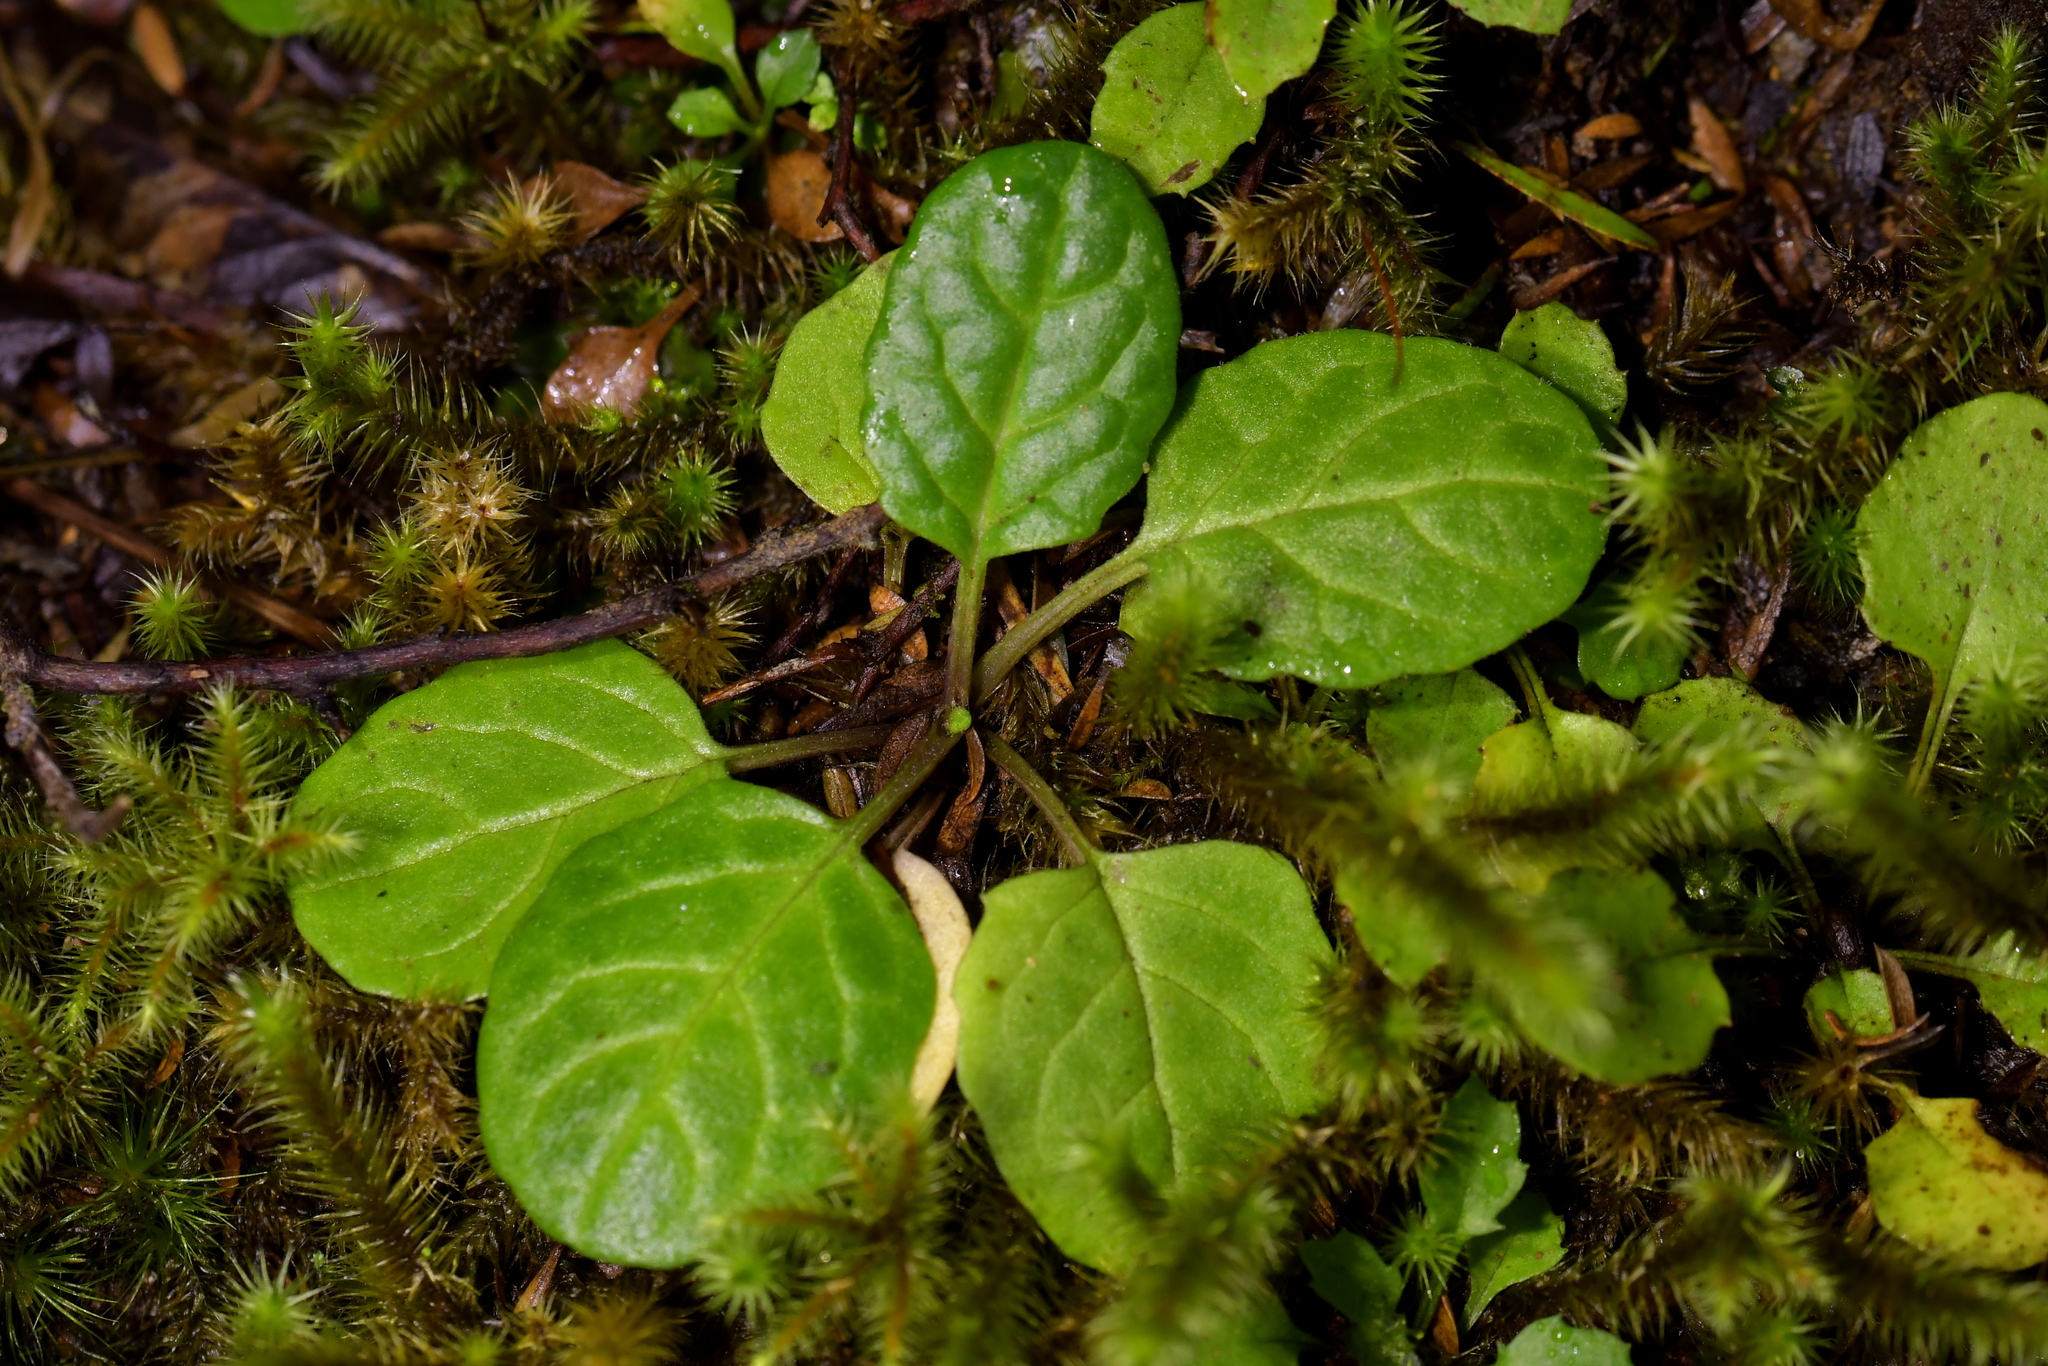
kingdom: Plantae
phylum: Tracheophyta
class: Magnoliopsida
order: Lamiales
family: Lamiaceae
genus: Prunella
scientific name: Prunella vulgaris
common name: Heal-all
